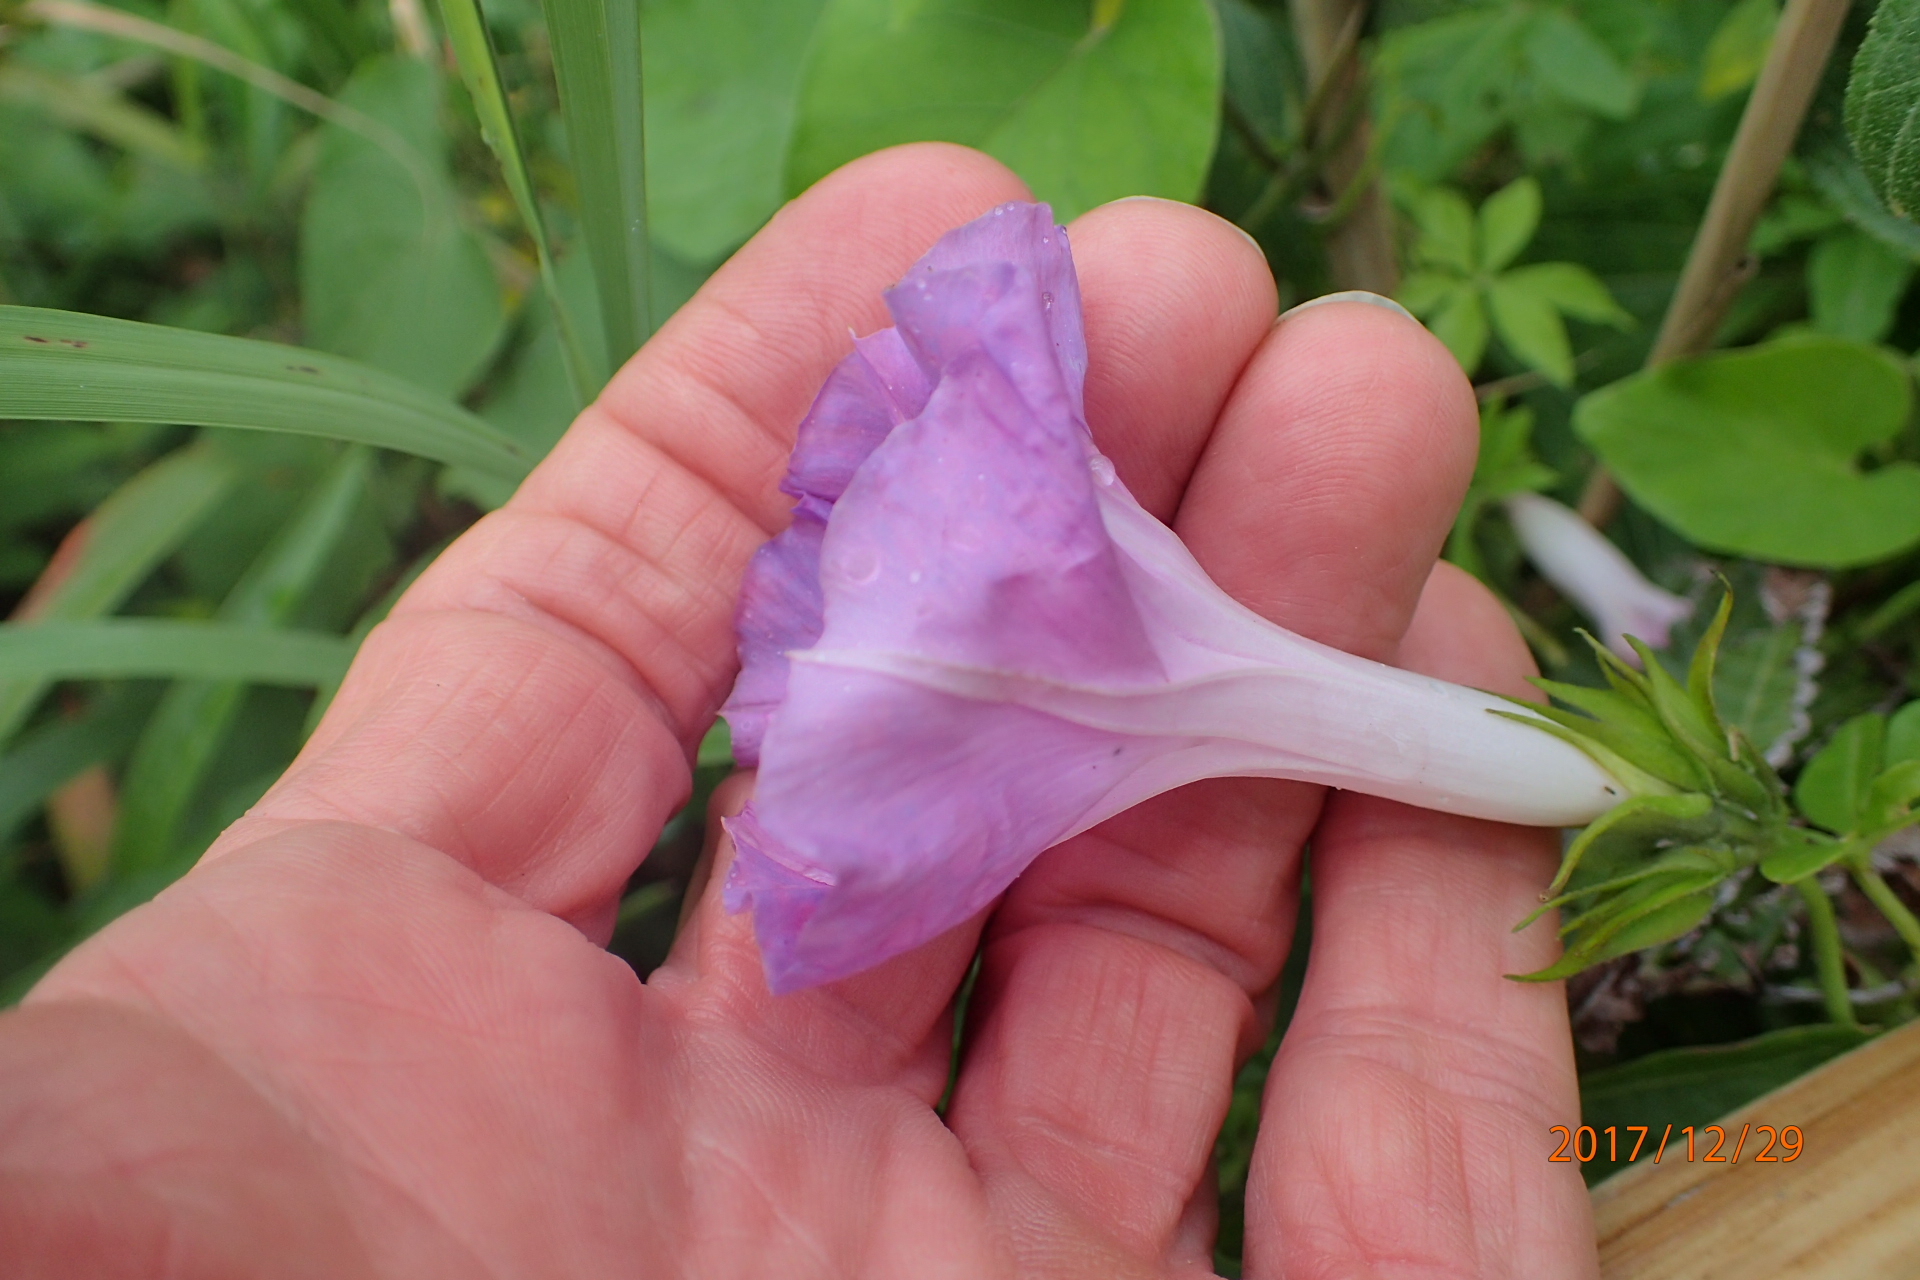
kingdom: Plantae
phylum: Tracheophyta
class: Magnoliopsida
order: Solanales
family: Convolvulaceae
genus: Ipomoea
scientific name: Ipomoea cairica
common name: Mile a minute vine
